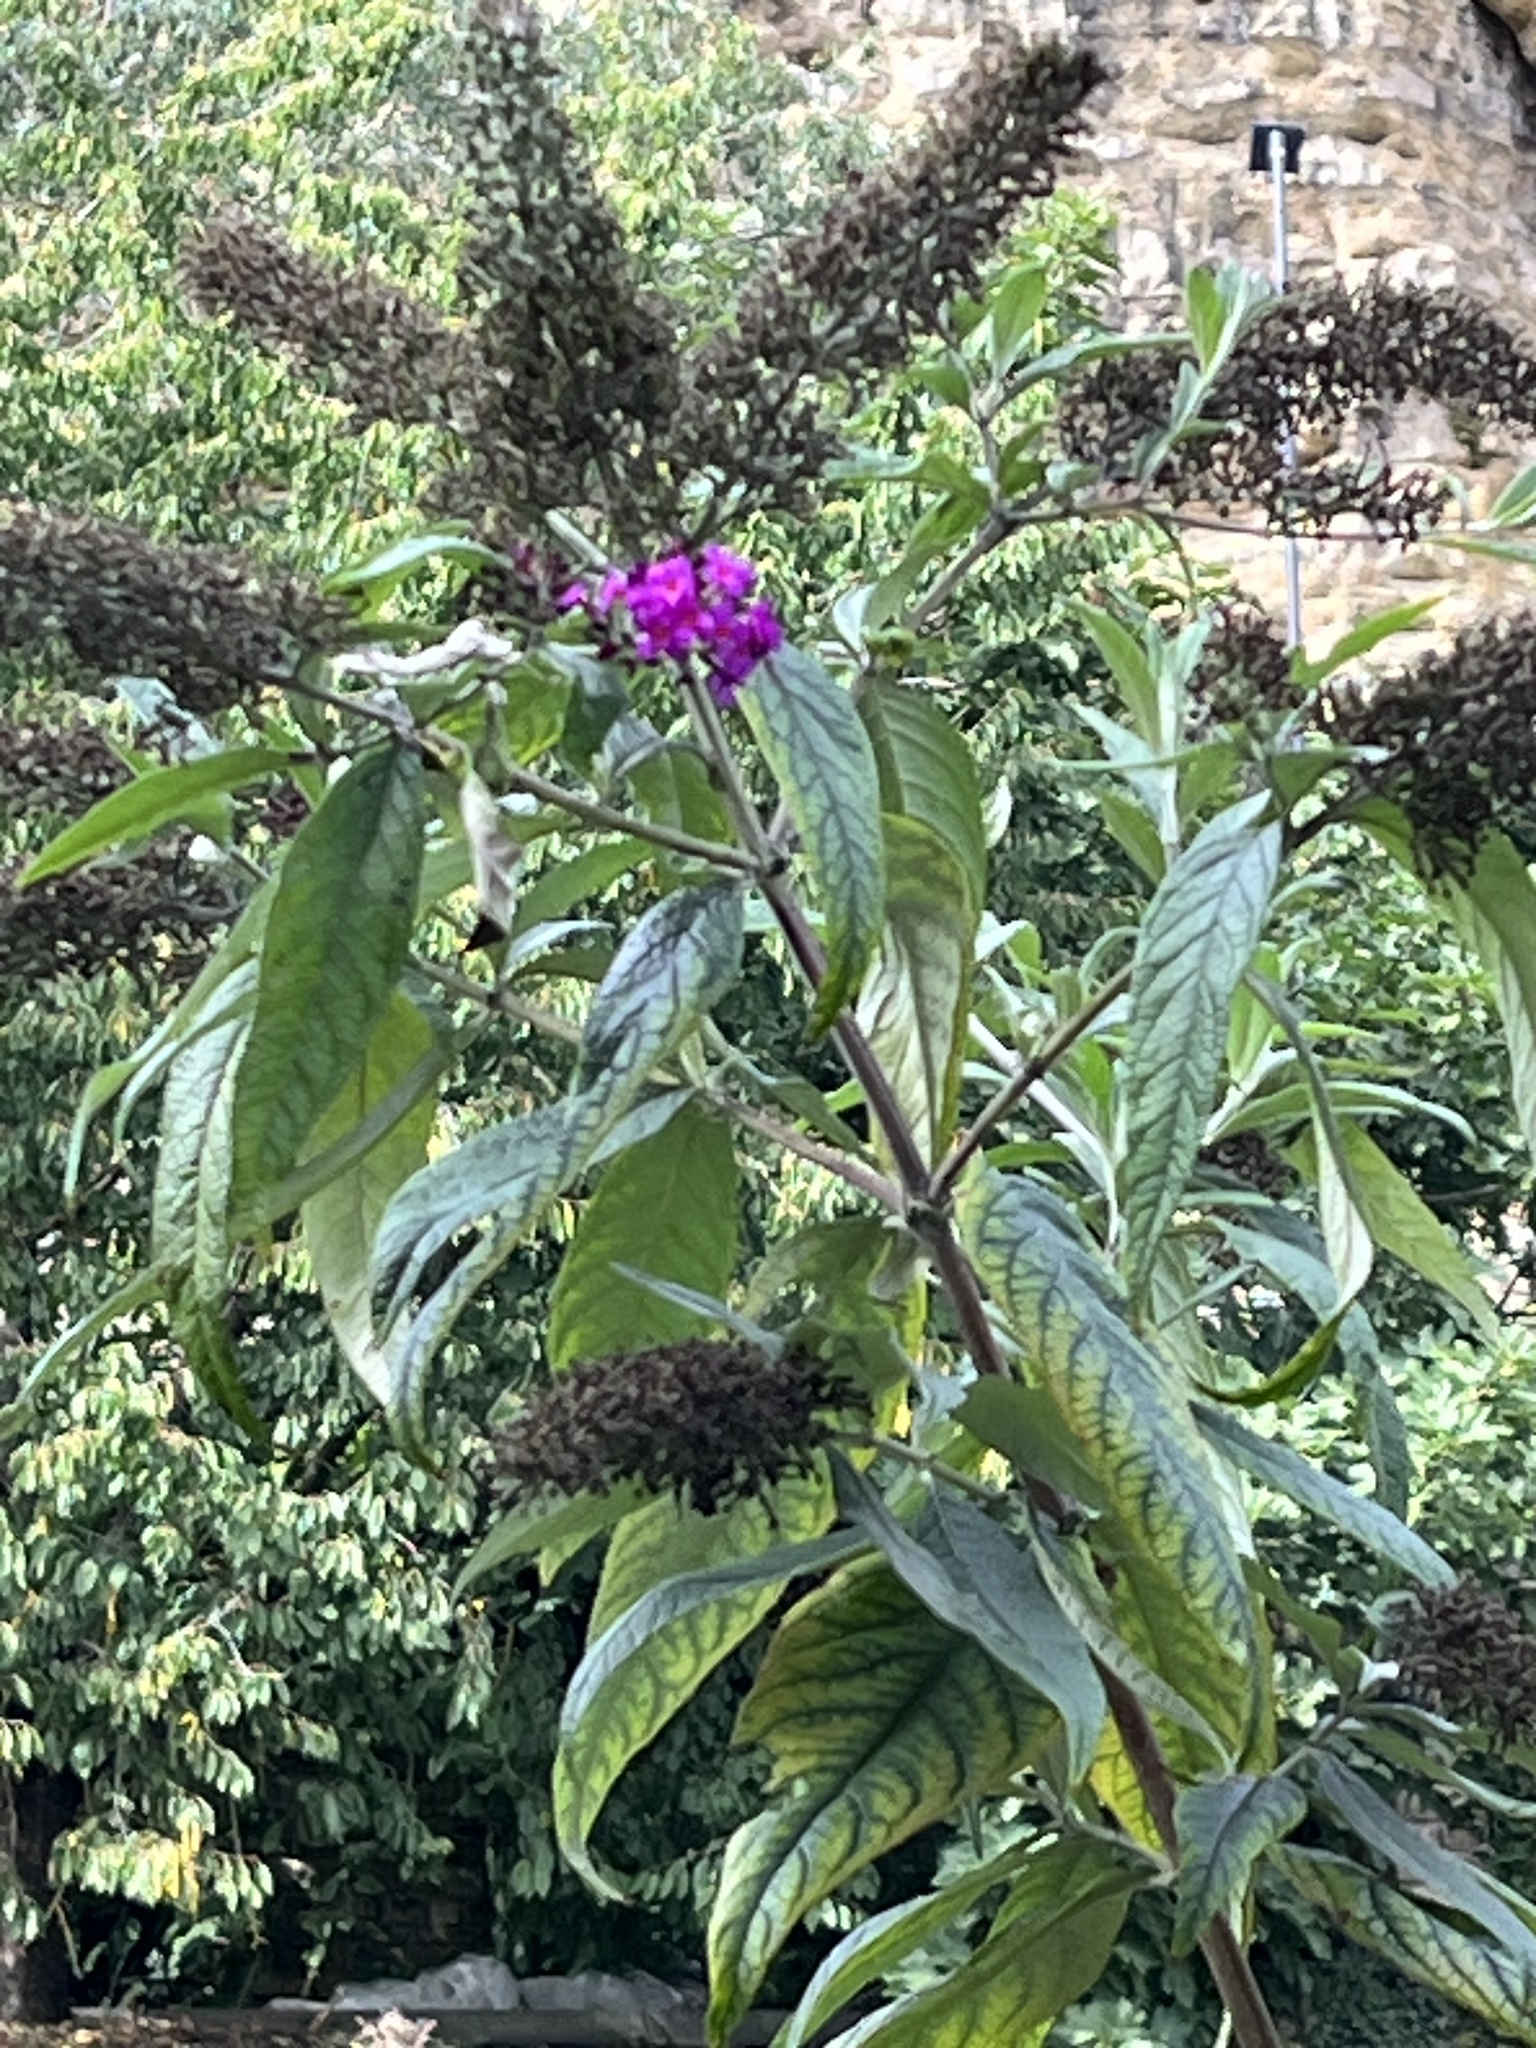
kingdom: Plantae
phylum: Tracheophyta
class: Magnoliopsida
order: Lamiales
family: Scrophulariaceae
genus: Buddleja
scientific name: Buddleja davidii
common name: Butterfly-bush
